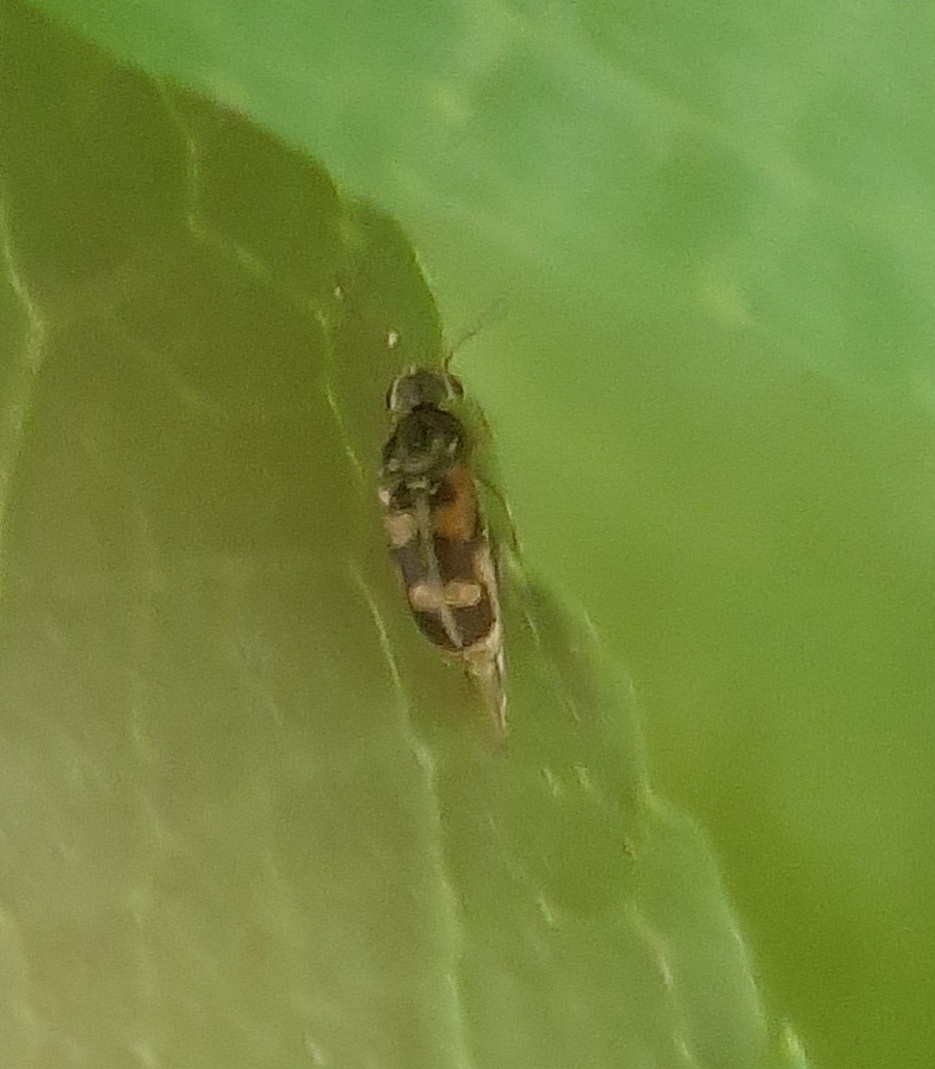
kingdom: Animalia
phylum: Arthropoda
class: Insecta
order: Coleoptera
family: Mordellidae
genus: Falsomordellistena
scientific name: Falsomordellistena pubescens
